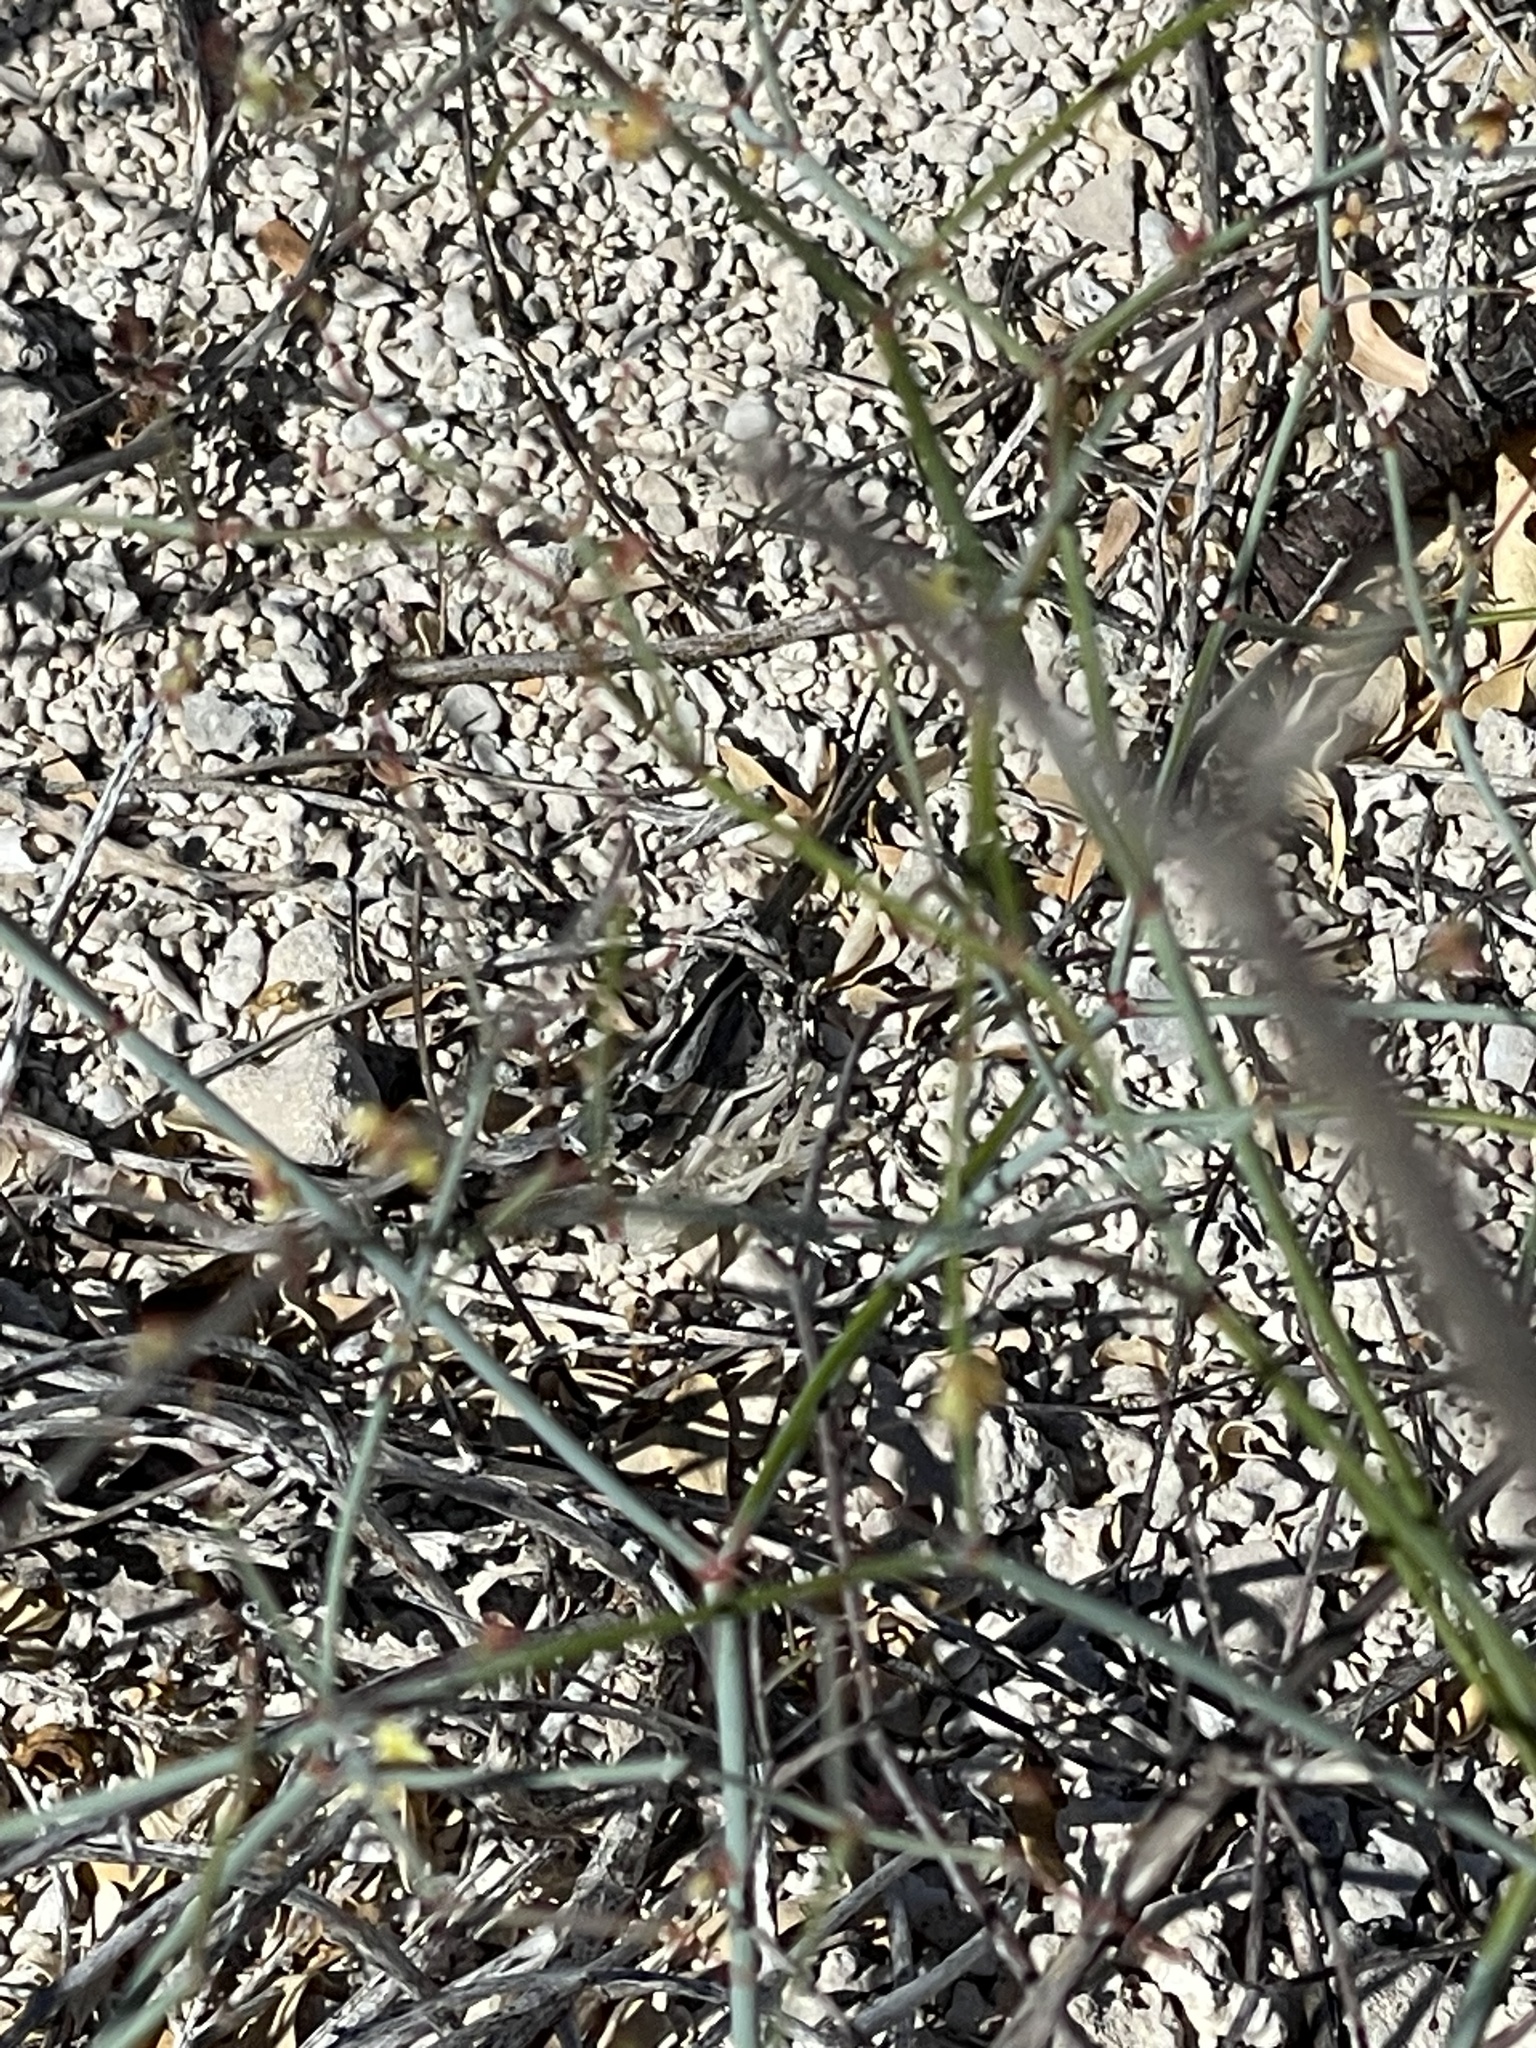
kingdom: Plantae
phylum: Tracheophyta
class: Magnoliopsida
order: Caryophyllales
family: Polygonaceae
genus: Eriogonum
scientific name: Eriogonum inflatum
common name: Desert trumpet
